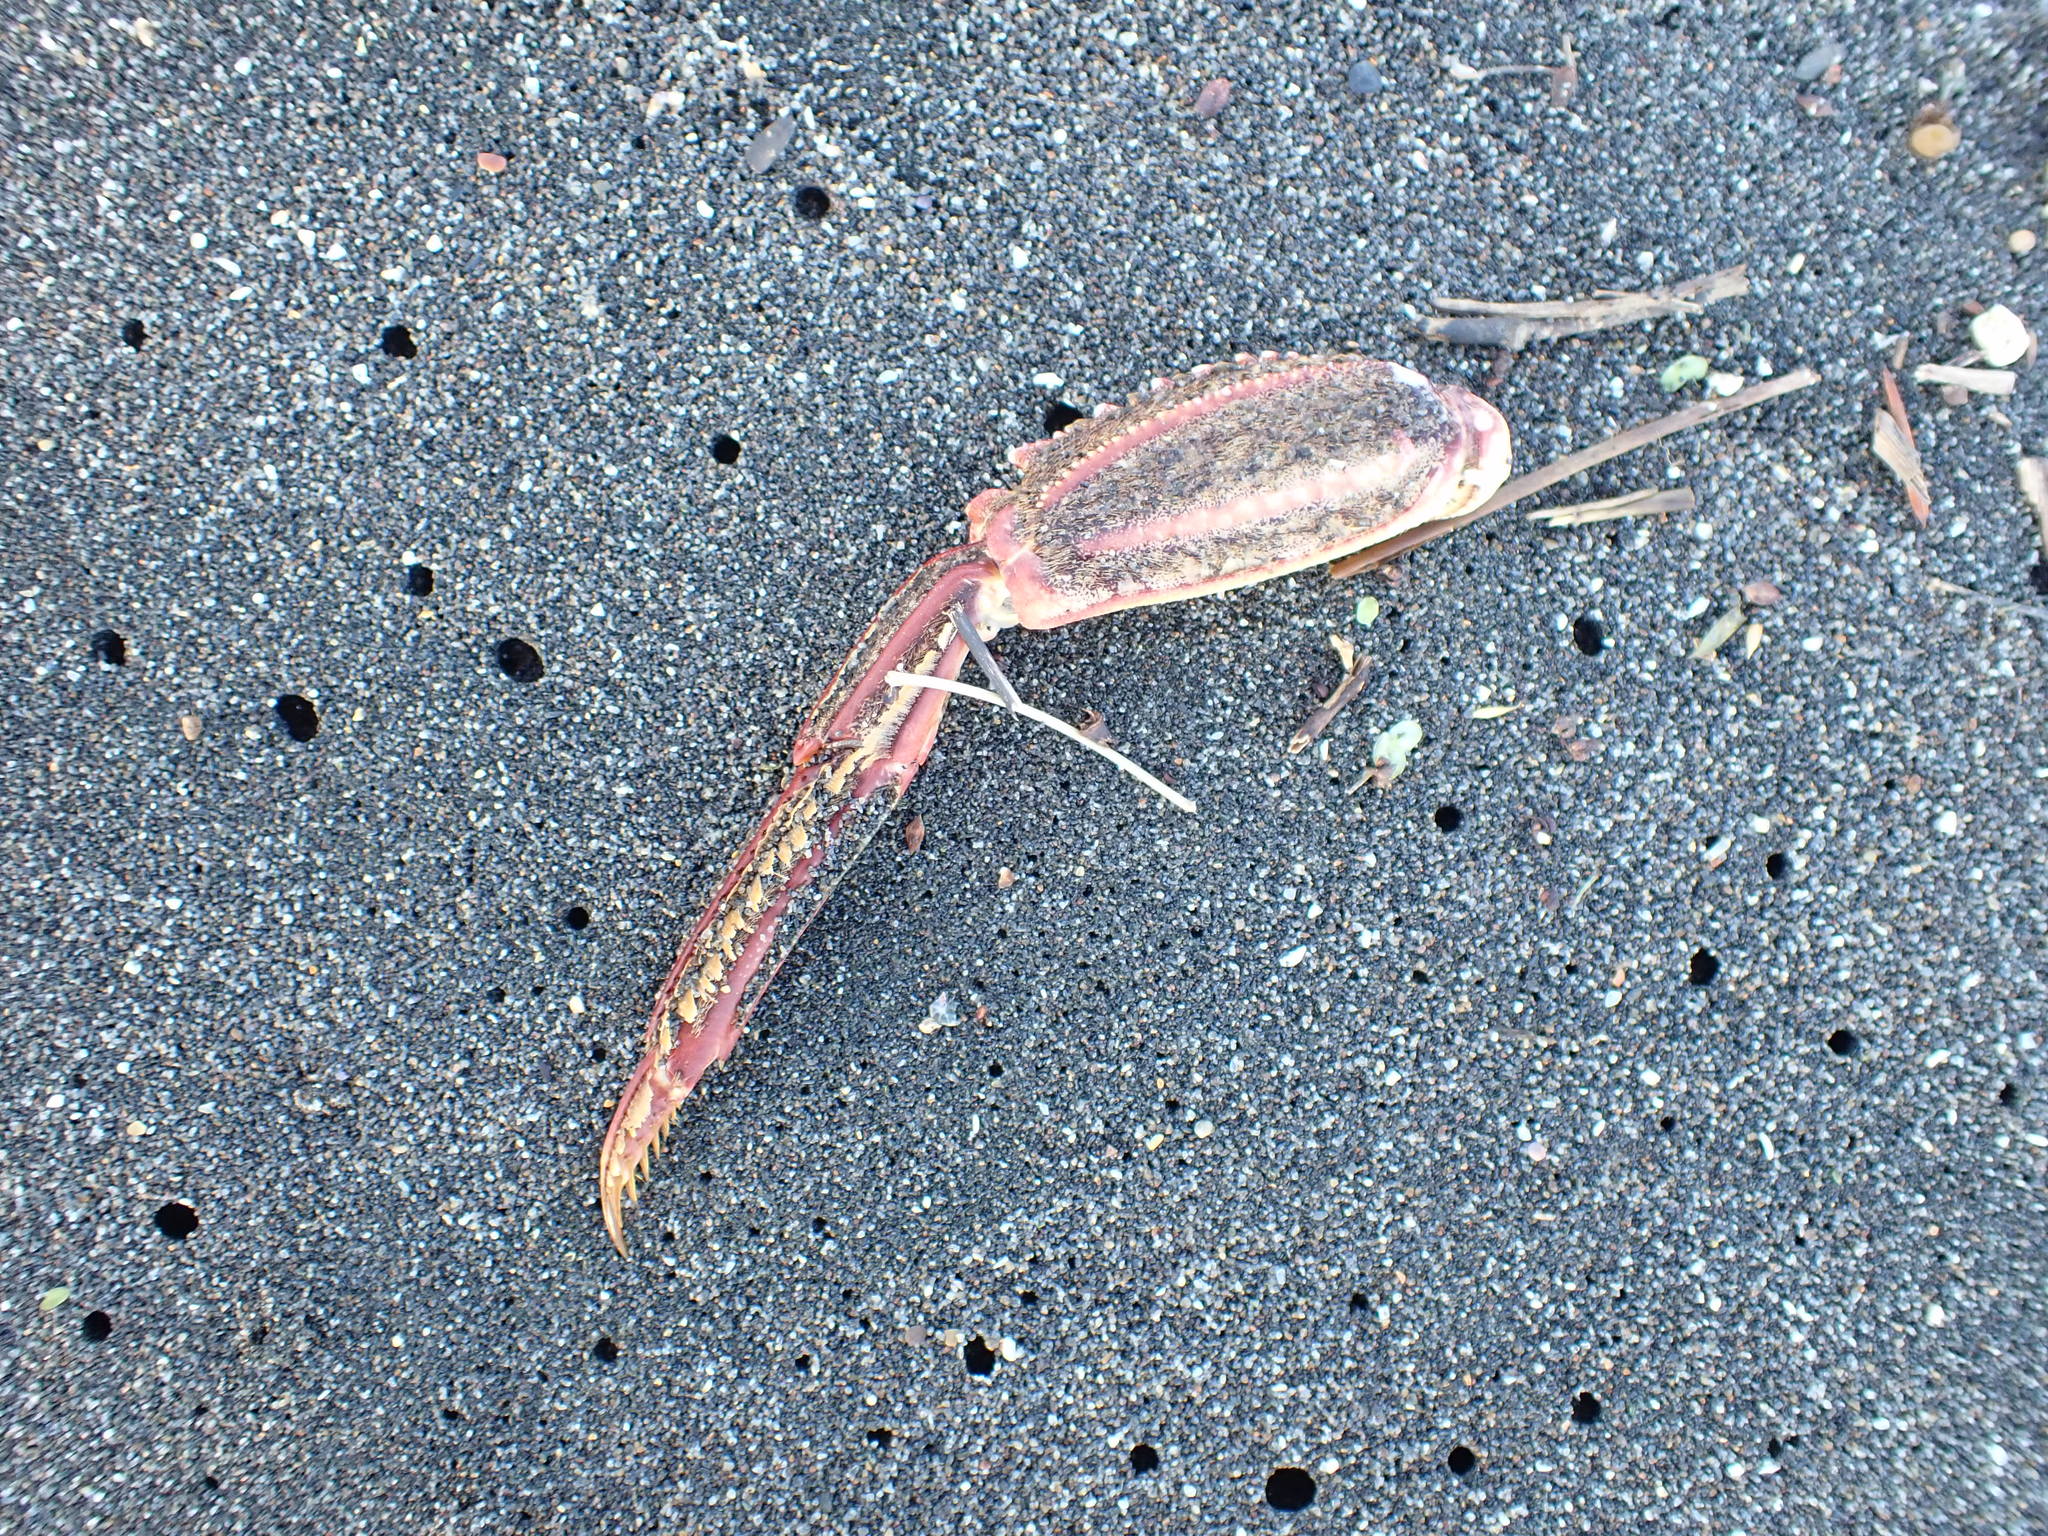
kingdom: Animalia
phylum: Arthropoda
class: Malacostraca
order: Decapoda
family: Plagusiidae
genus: Guinusia
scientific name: Guinusia chabrus
